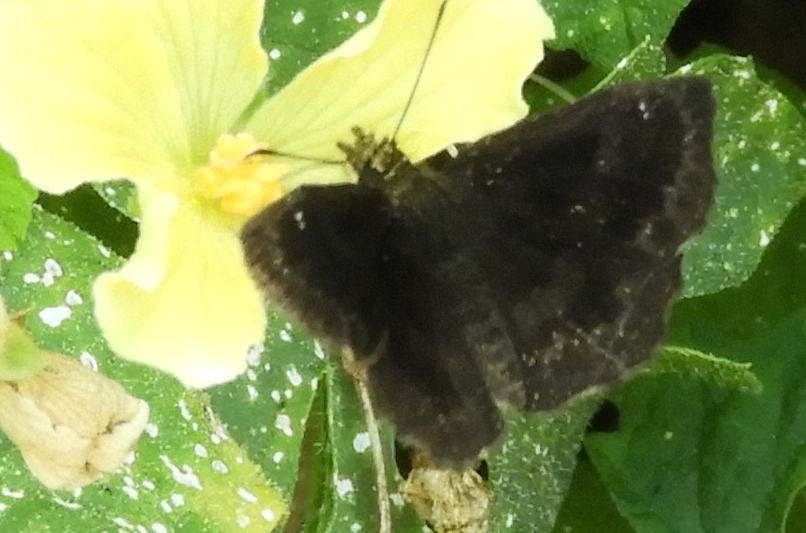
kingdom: Animalia
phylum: Arthropoda
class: Insecta
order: Lepidoptera
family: Hesperiidae
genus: Staphylus
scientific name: Staphylus mazans
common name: Mazans scallopwing
